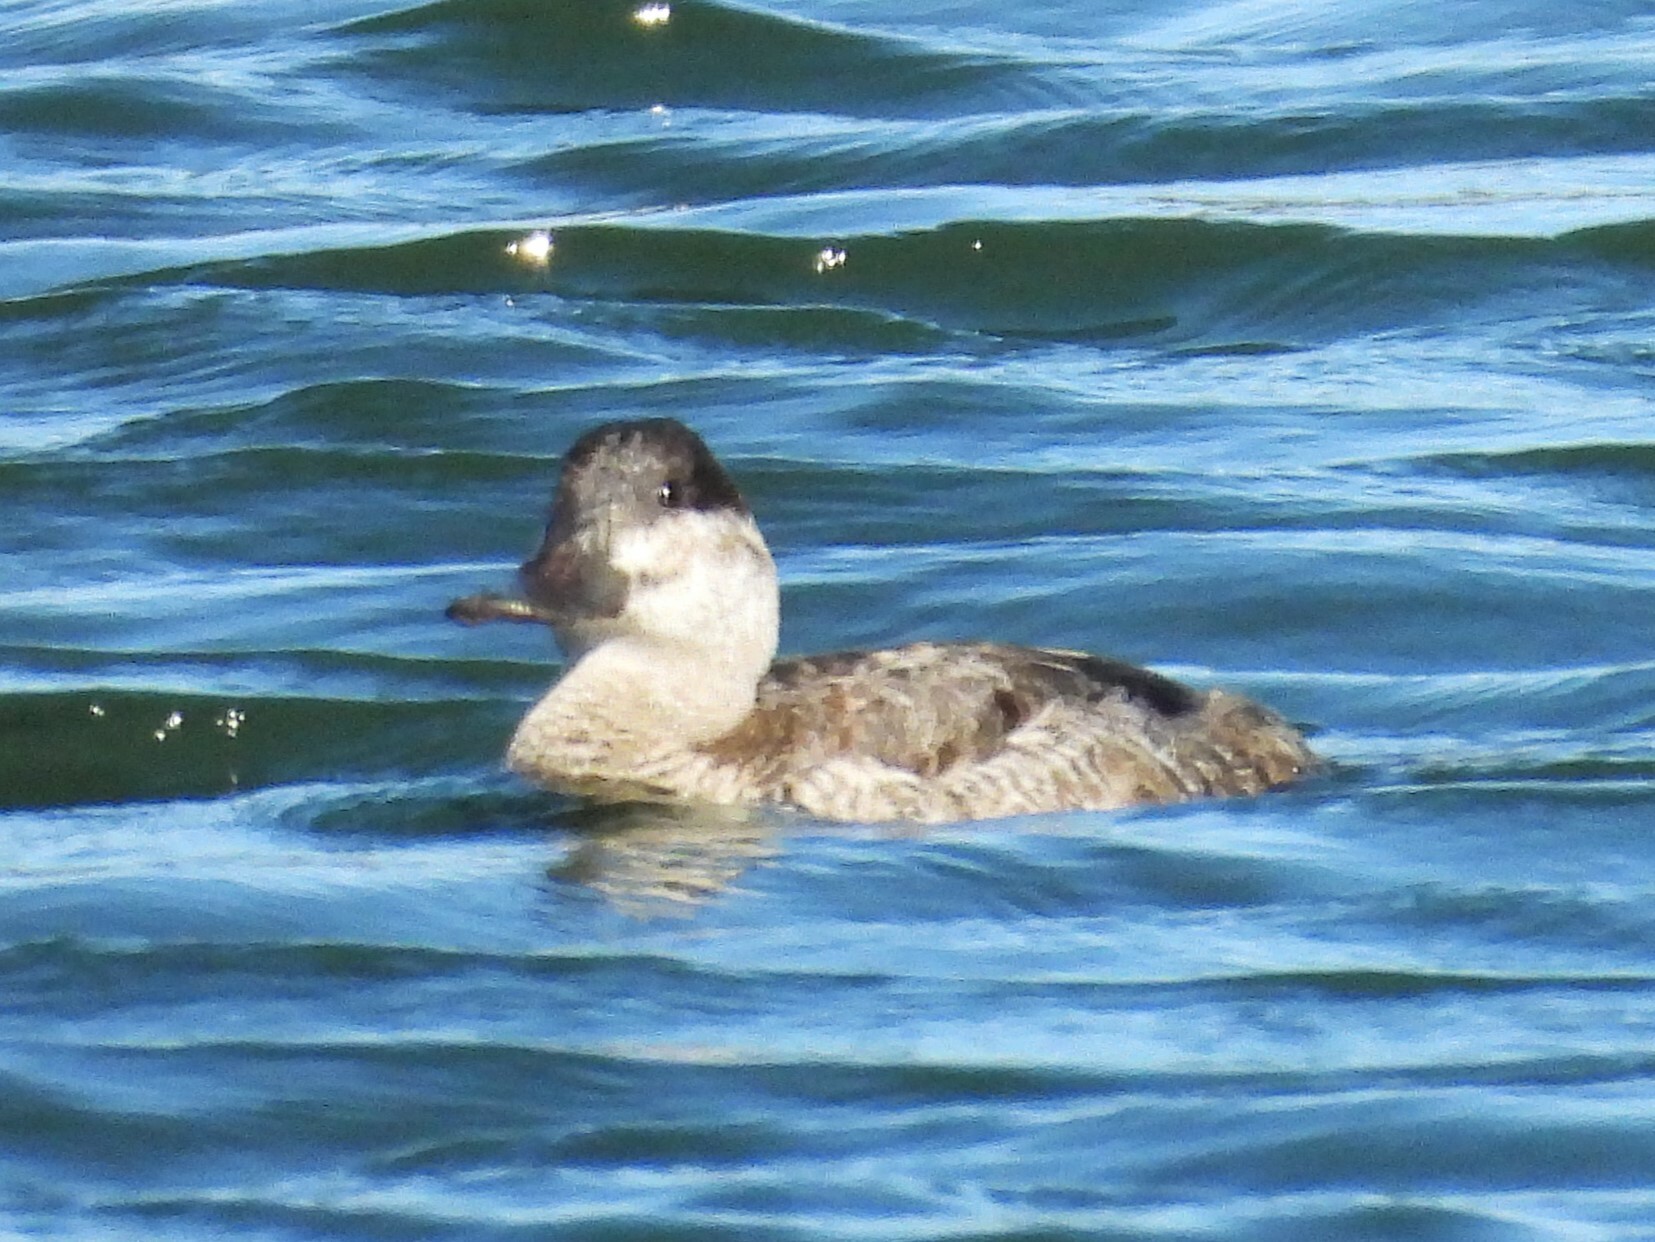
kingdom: Animalia
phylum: Chordata
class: Aves
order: Anseriformes
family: Anatidae
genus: Oxyura
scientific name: Oxyura jamaicensis
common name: Ruddy duck
